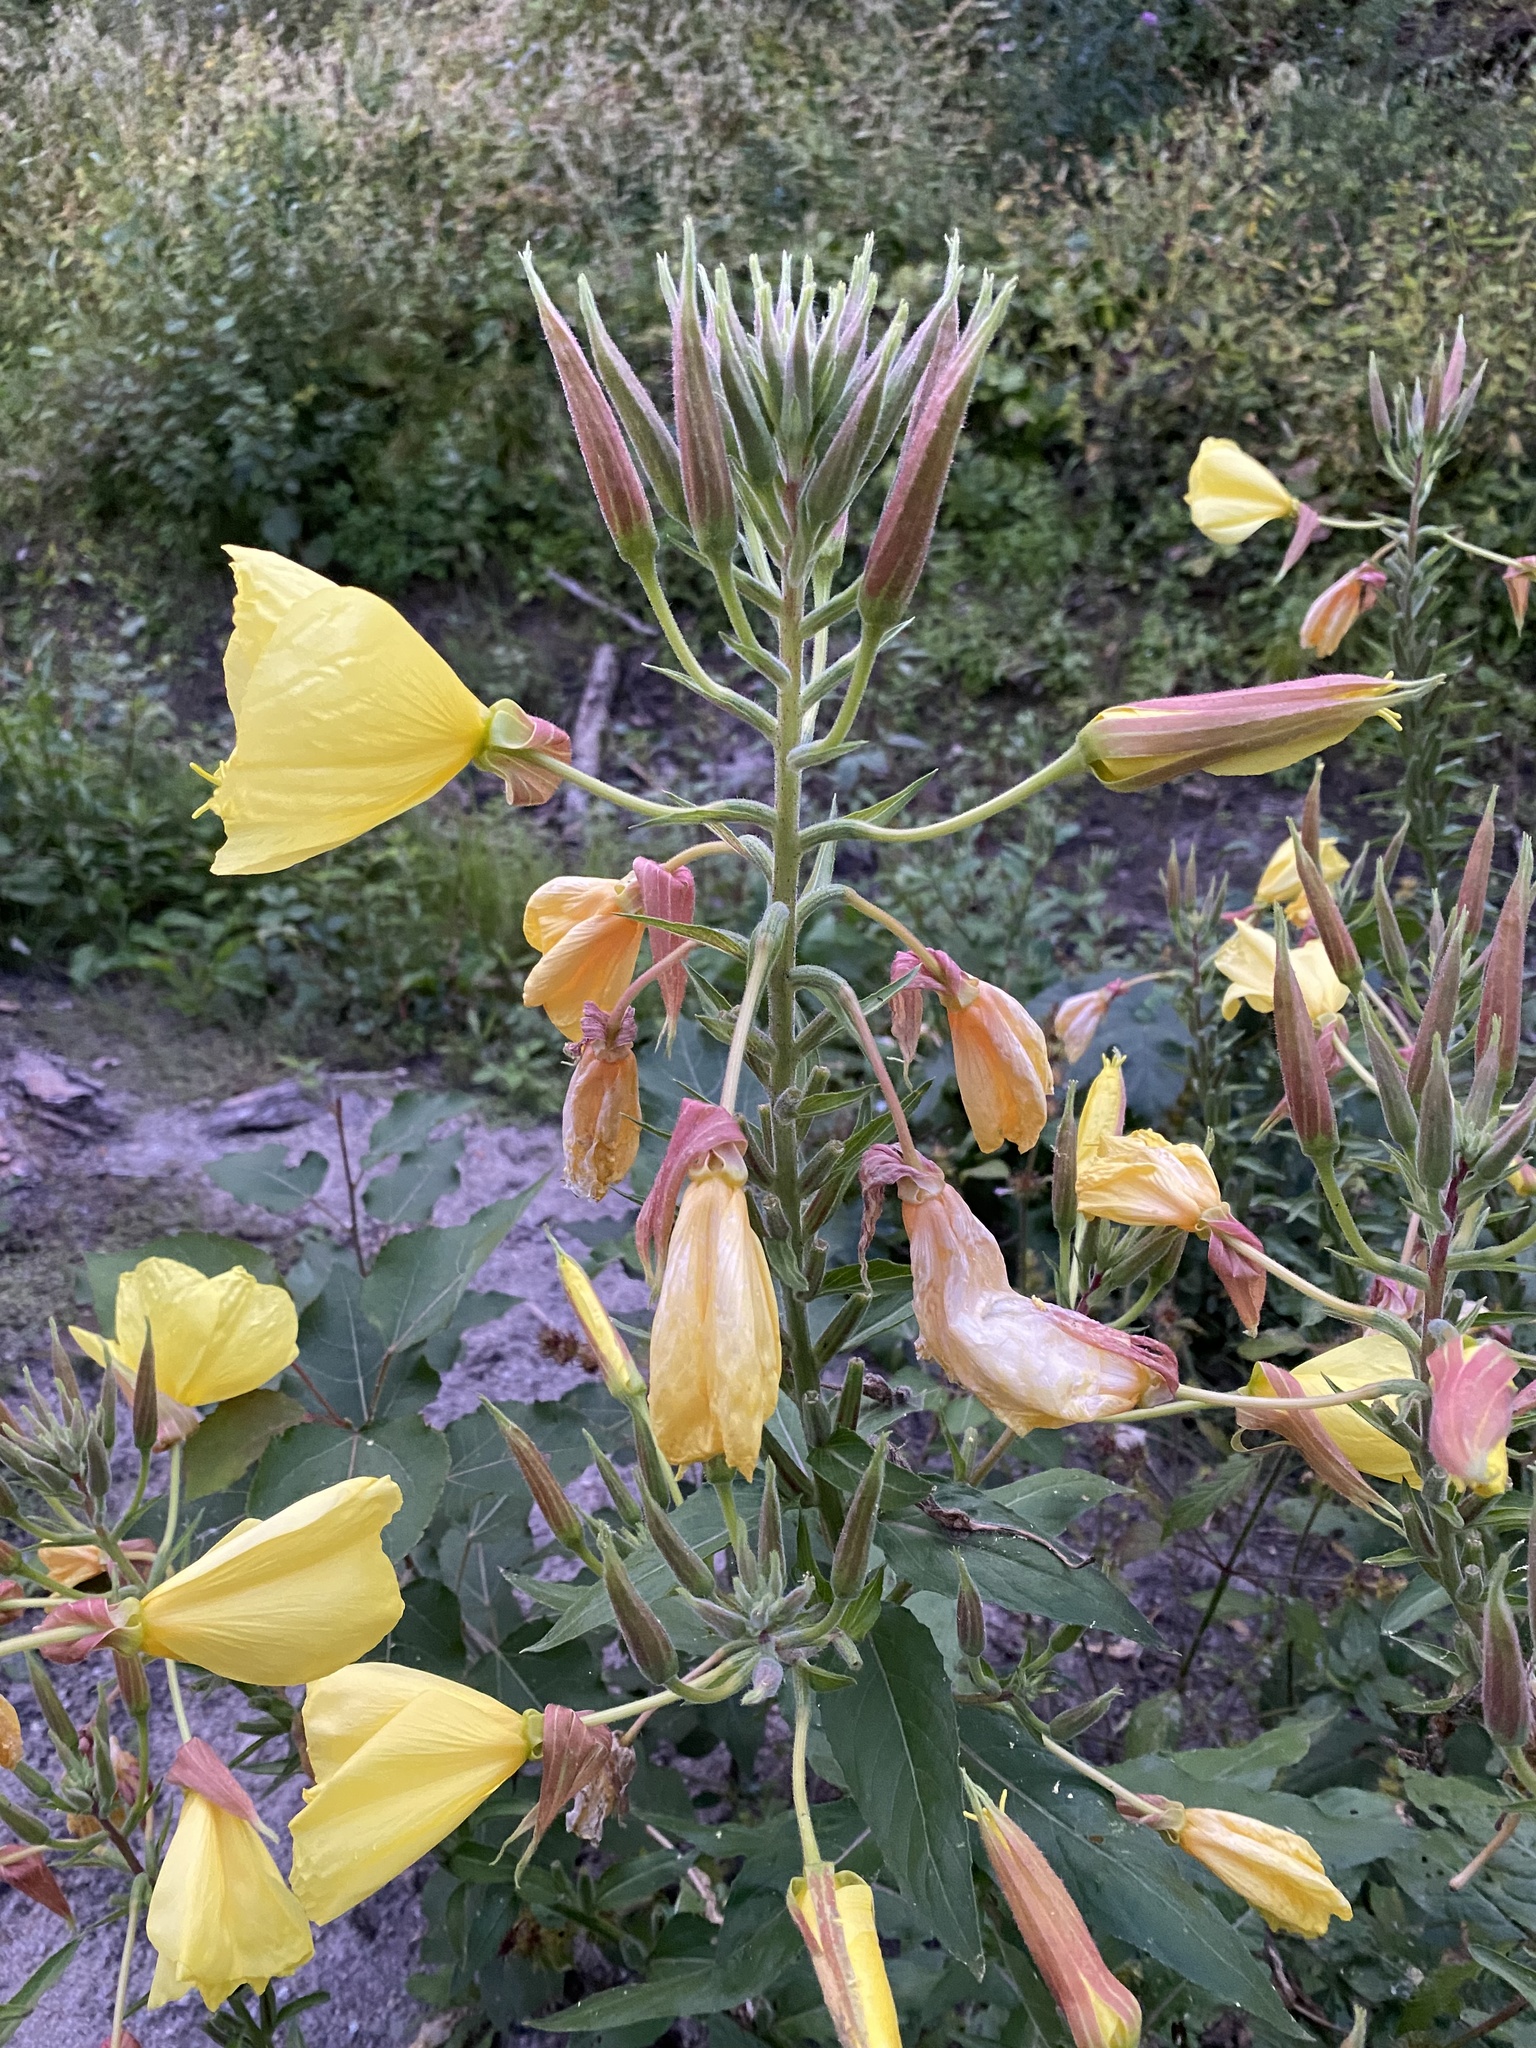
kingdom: Plantae
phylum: Tracheophyta
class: Magnoliopsida
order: Myrtales
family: Onagraceae
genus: Oenothera
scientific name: Oenothera glazioviana
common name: Large-flowered evening-primrose
